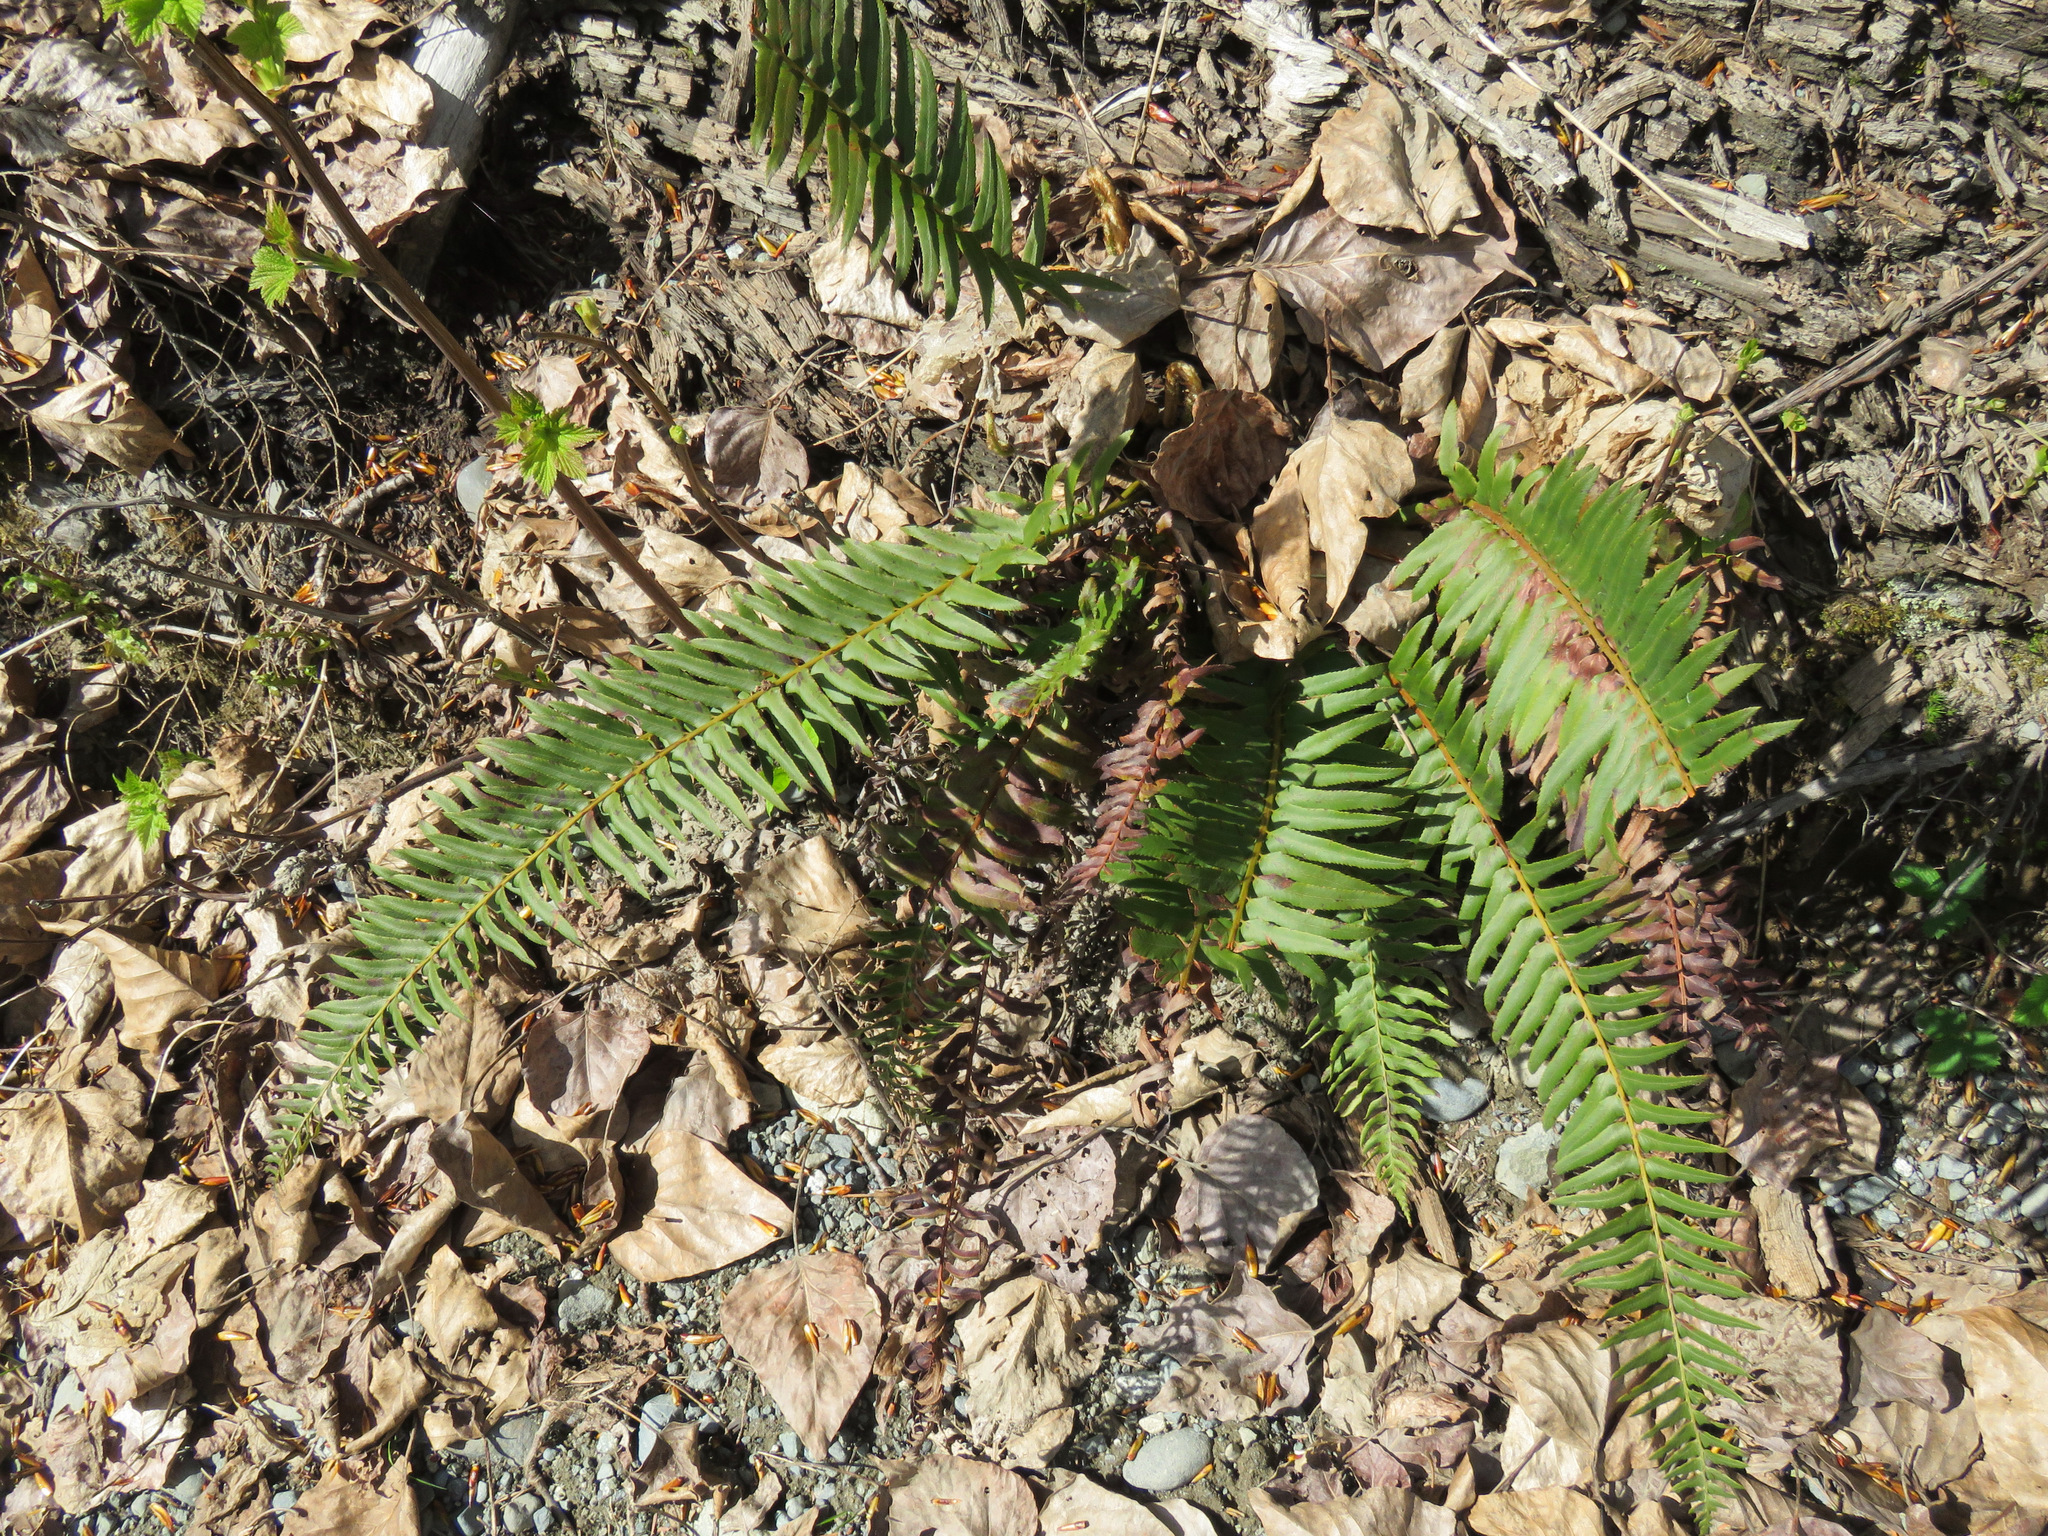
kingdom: Plantae
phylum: Tracheophyta
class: Polypodiopsida
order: Polypodiales
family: Dryopteridaceae
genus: Polystichum
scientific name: Polystichum munitum
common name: Western sword-fern
